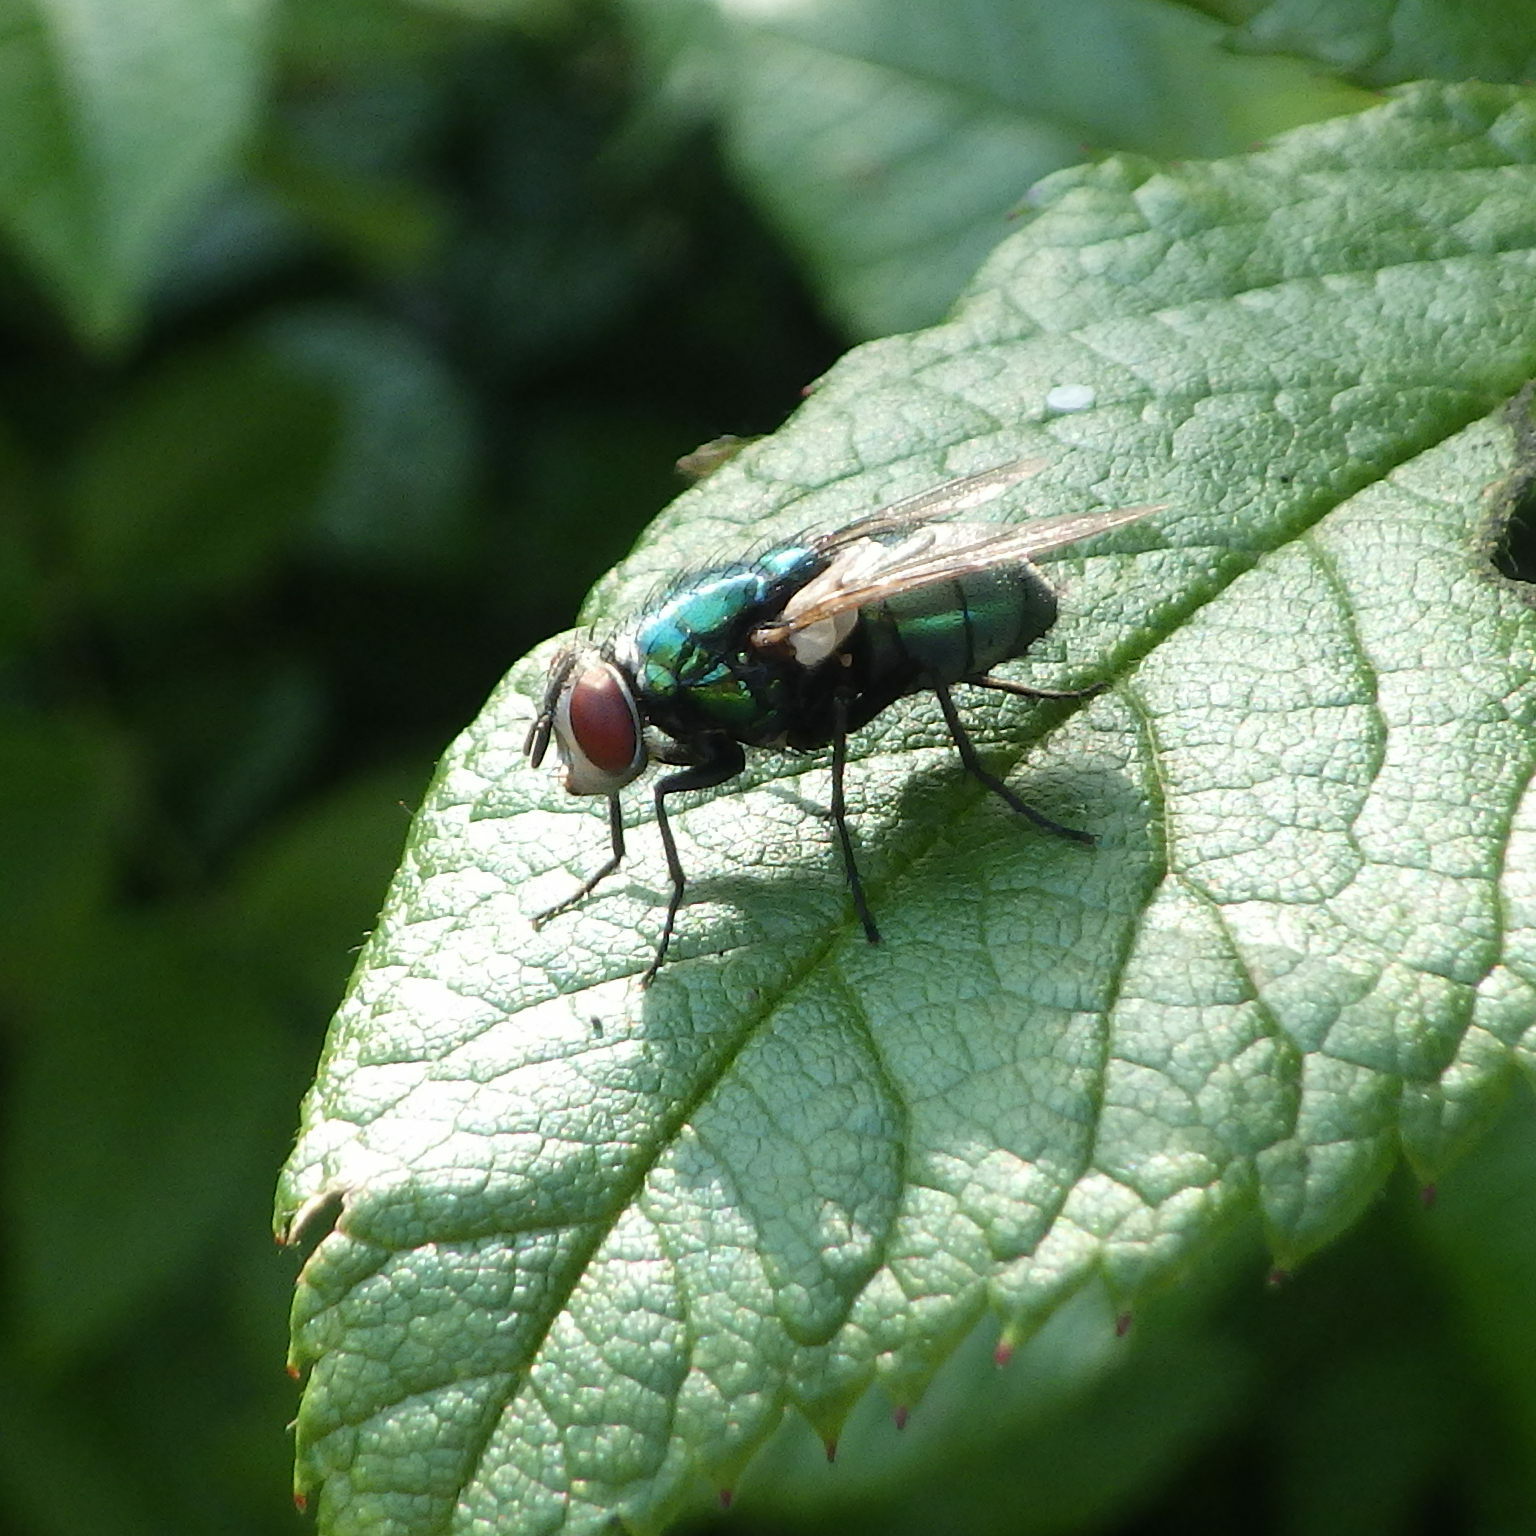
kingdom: Animalia
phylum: Arthropoda
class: Insecta
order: Diptera
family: Calliphoridae
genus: Lucilia
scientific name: Lucilia sericata
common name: Blow fly
